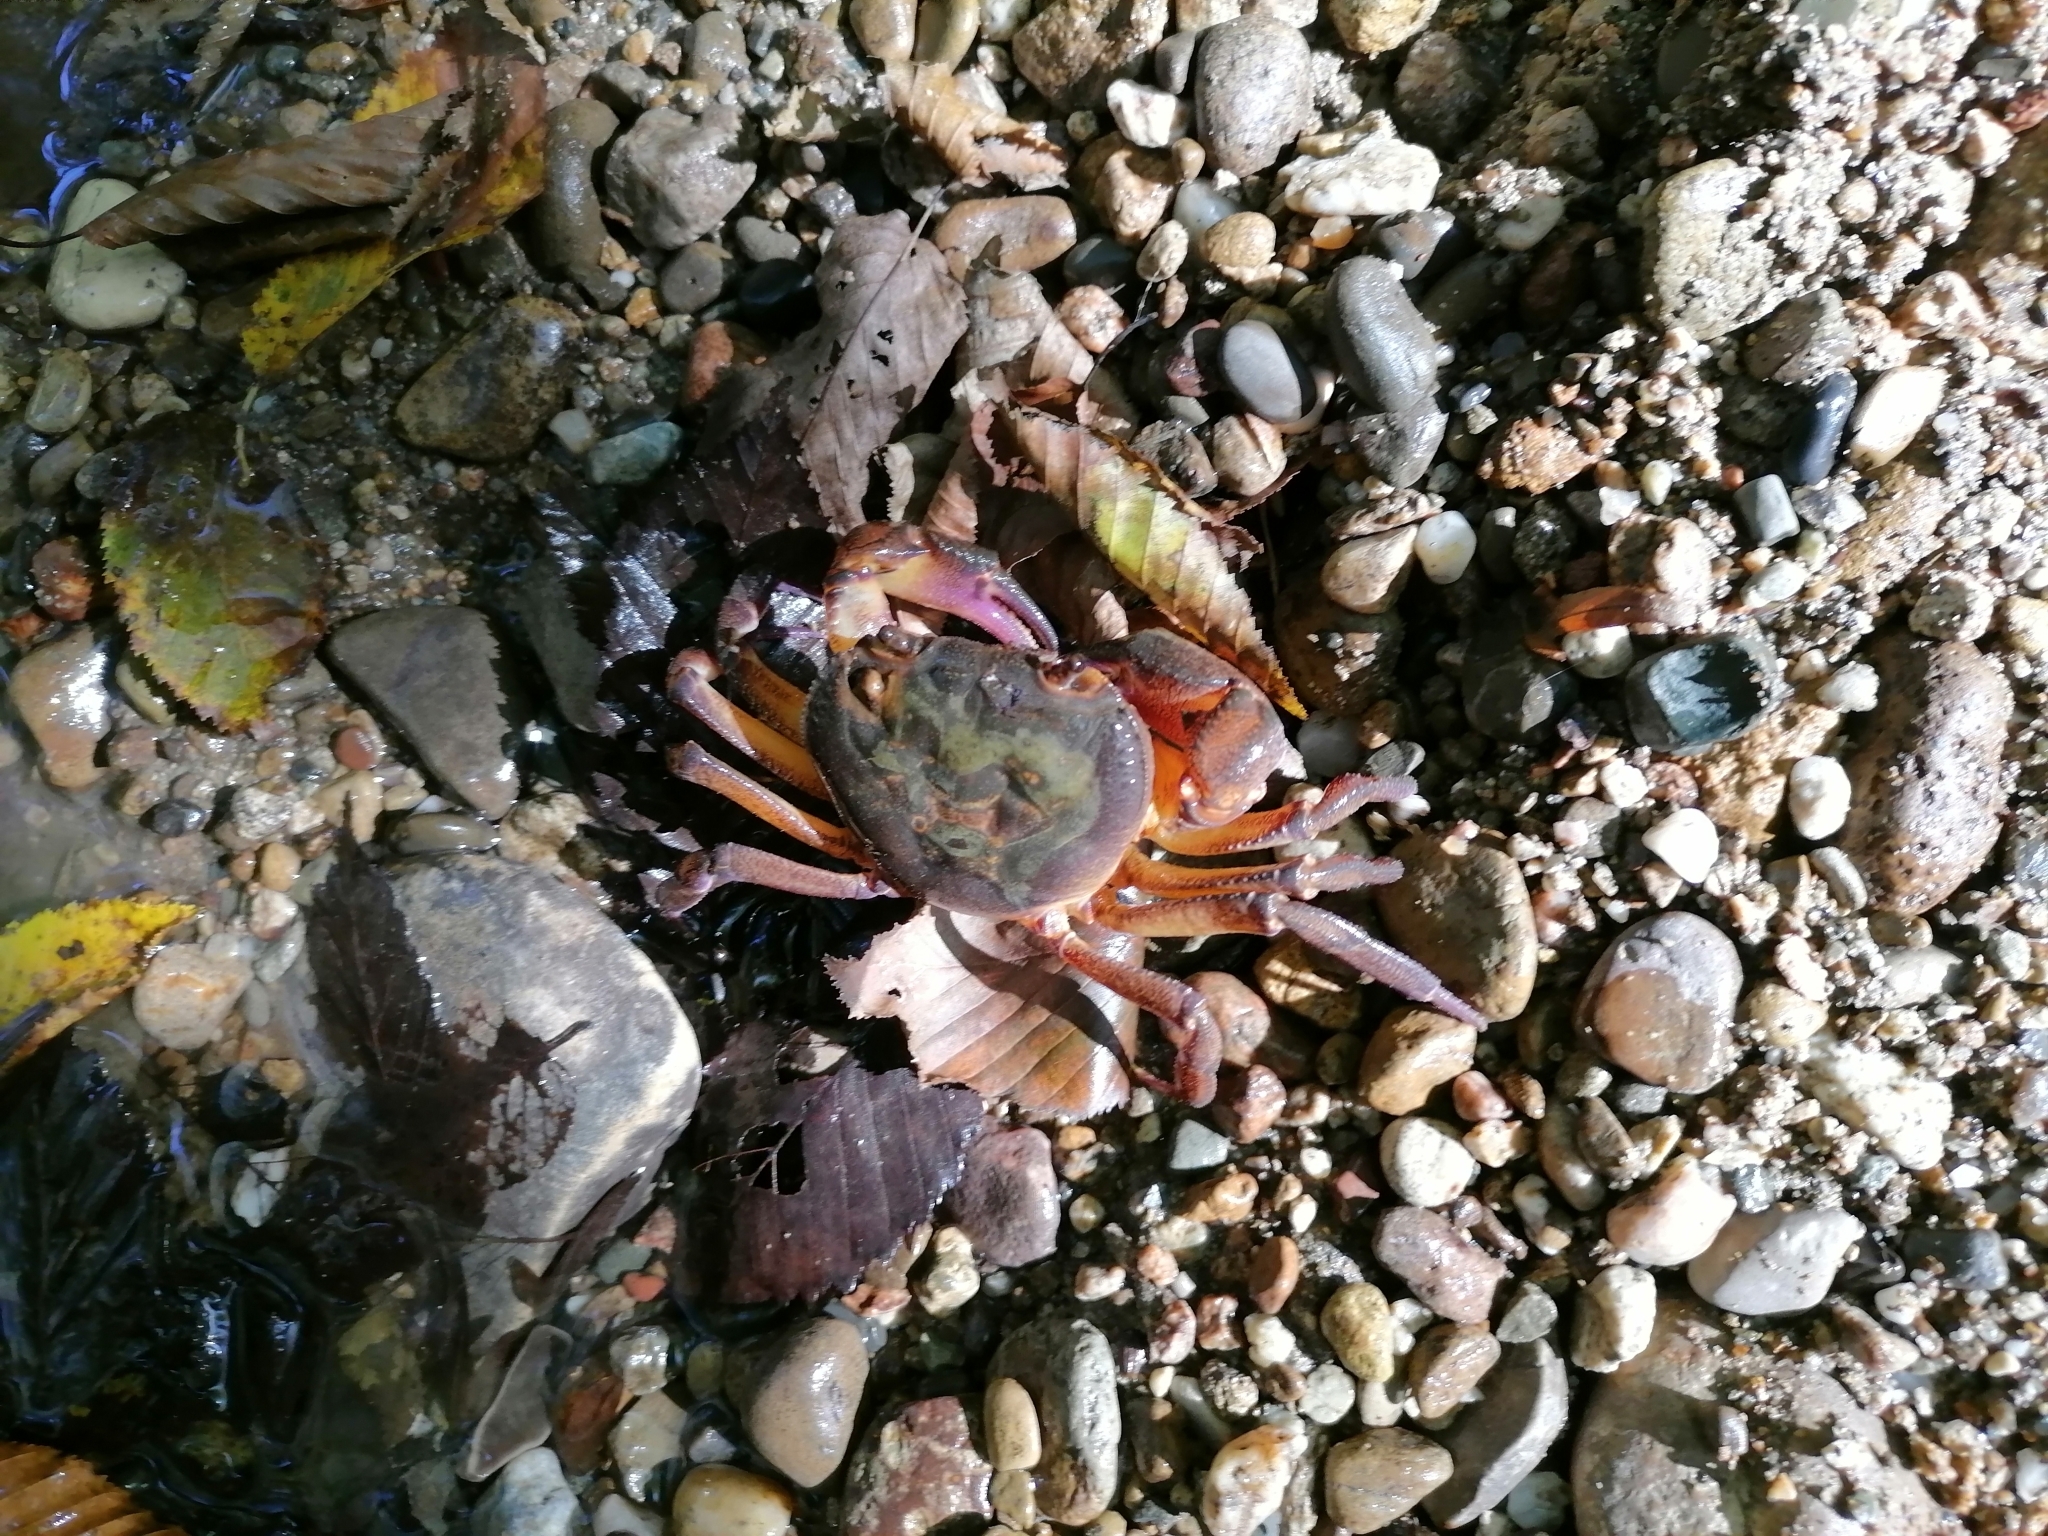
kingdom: Animalia
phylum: Arthropoda
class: Malacostraca
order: Decapoda
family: Potamidae
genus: Potamon
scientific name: Potamon ibericum
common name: Bieberstein's freshwater crab
